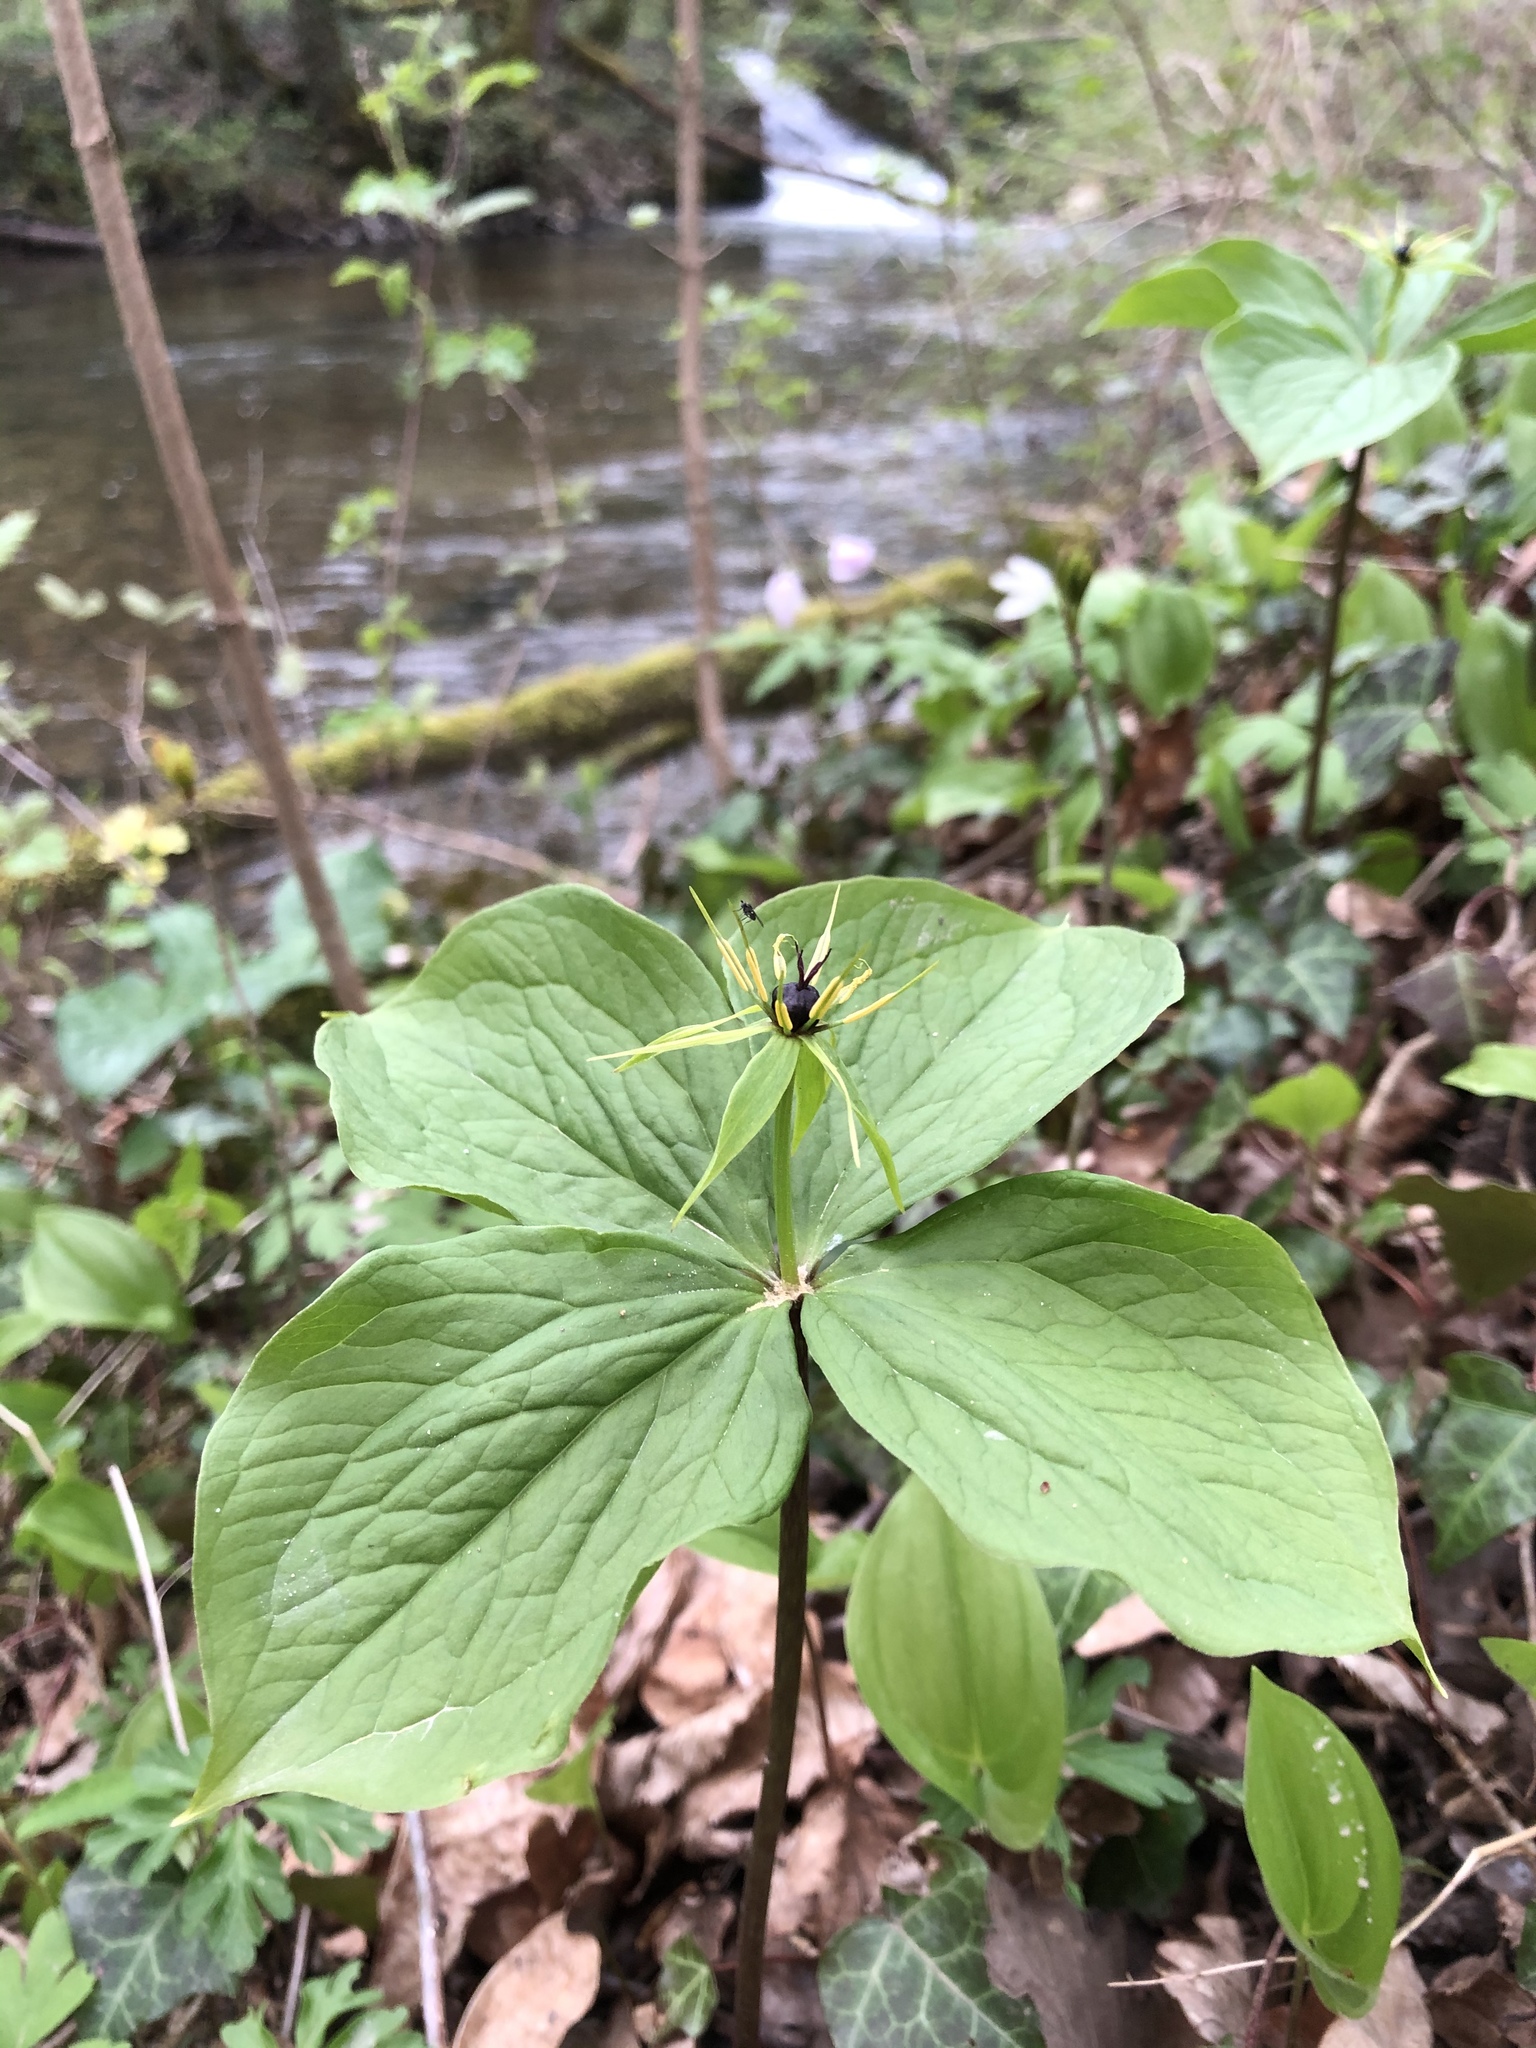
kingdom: Plantae
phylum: Tracheophyta
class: Liliopsida
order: Liliales
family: Melanthiaceae
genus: Paris
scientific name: Paris quadrifolia
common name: Herb-paris
